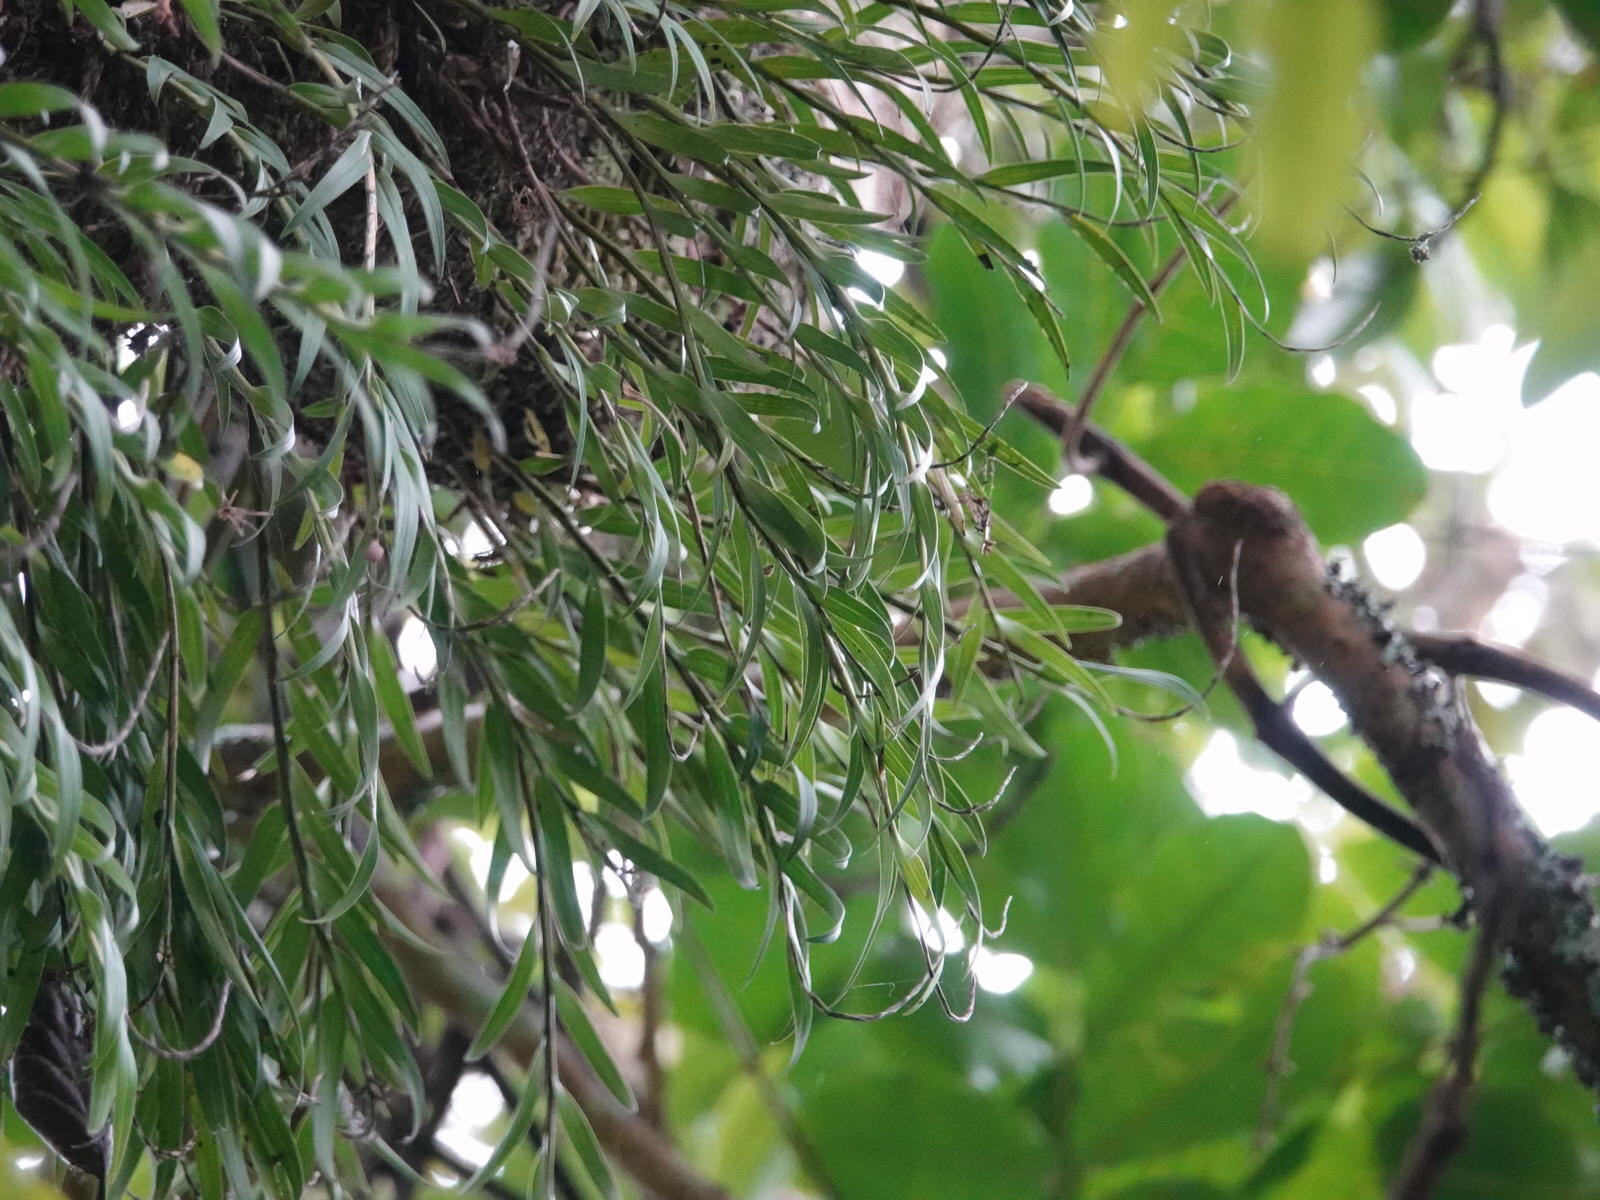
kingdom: Plantae
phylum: Tracheophyta
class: Liliopsida
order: Asparagales
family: Orchidaceae
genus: Earina
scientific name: Earina autumnalis
